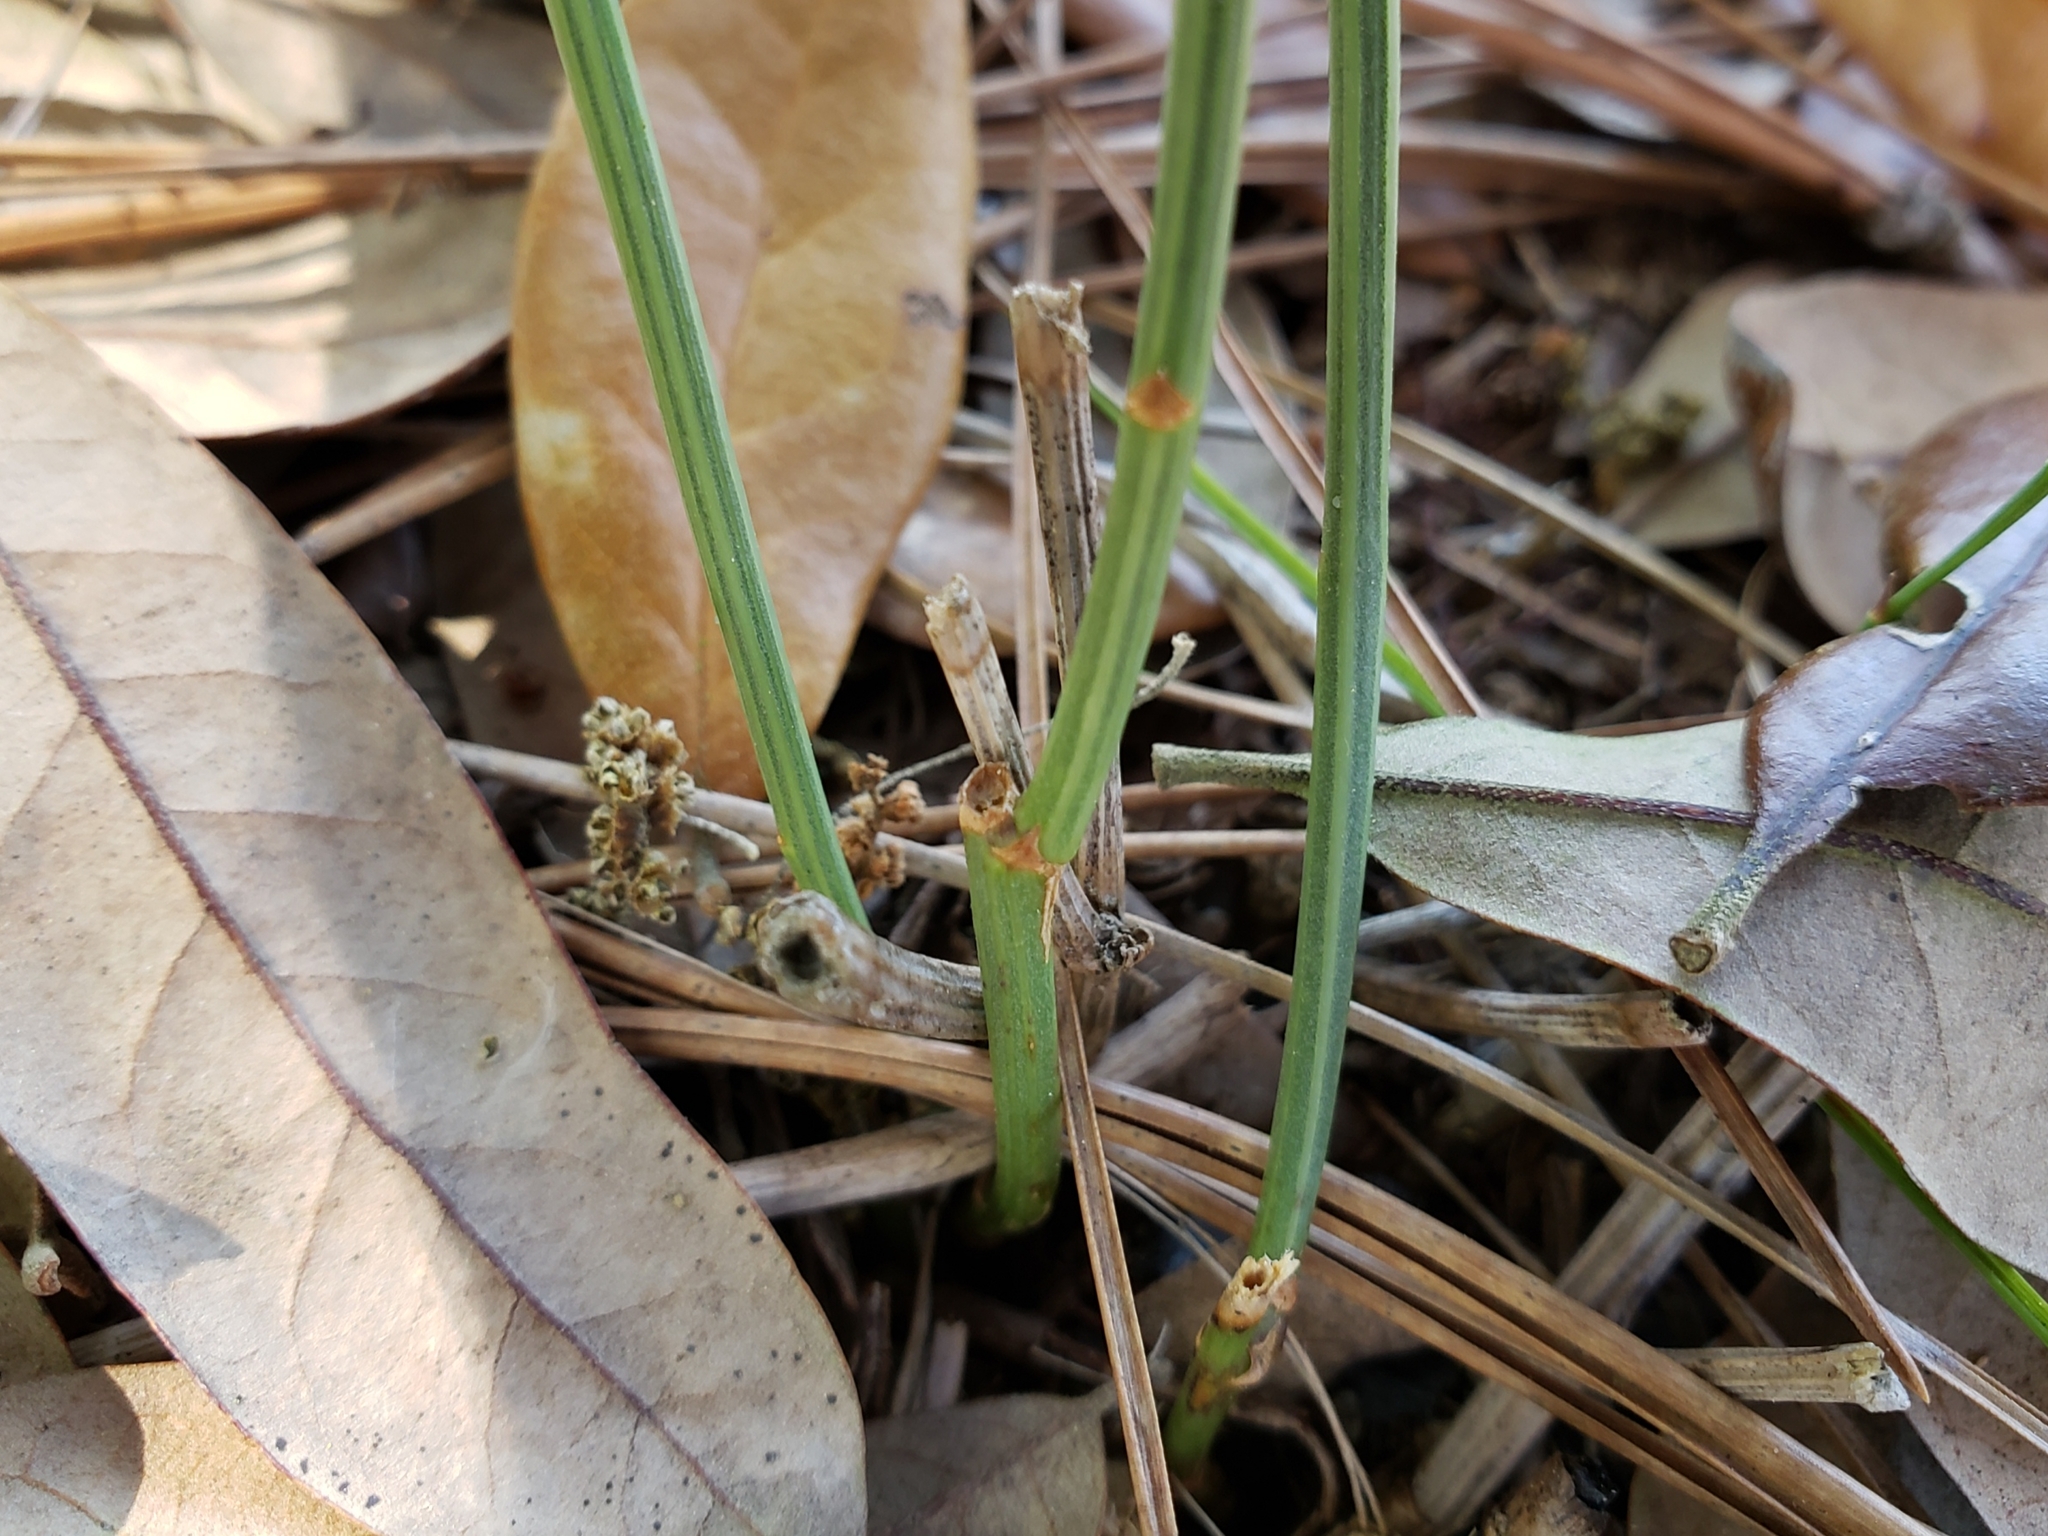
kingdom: Plantae
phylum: Tracheophyta
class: Magnoliopsida
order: Asterales
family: Asteraceae
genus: Lygodesmia
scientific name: Lygodesmia aphylla
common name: Rose-rush
